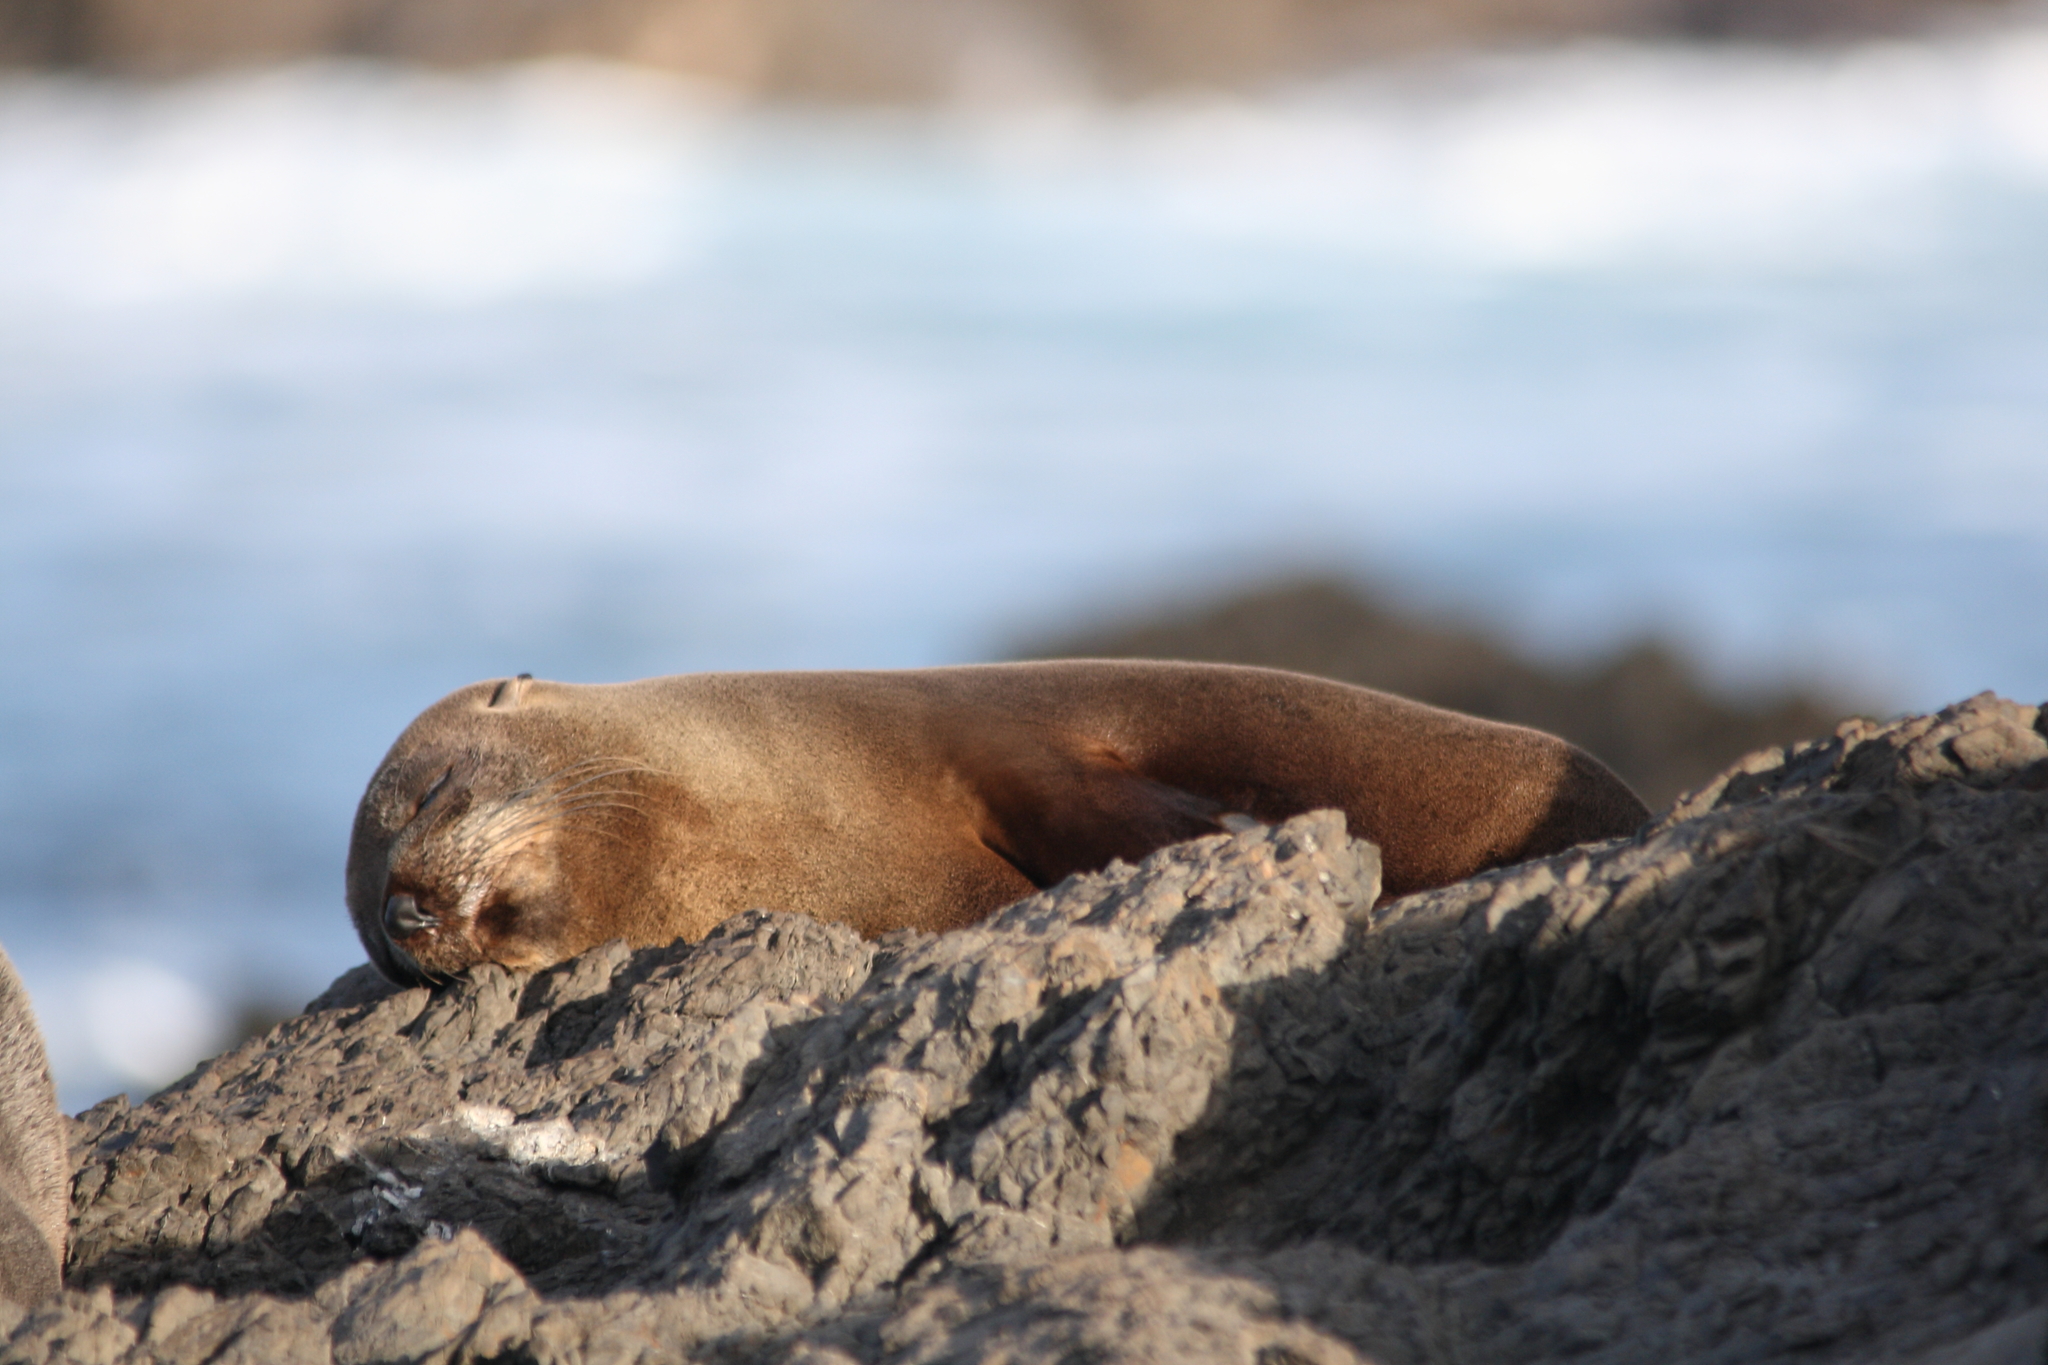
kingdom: Animalia
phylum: Chordata
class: Mammalia
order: Carnivora
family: Otariidae
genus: Arctocephalus
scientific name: Arctocephalus forsteri
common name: New zealand fur seal
